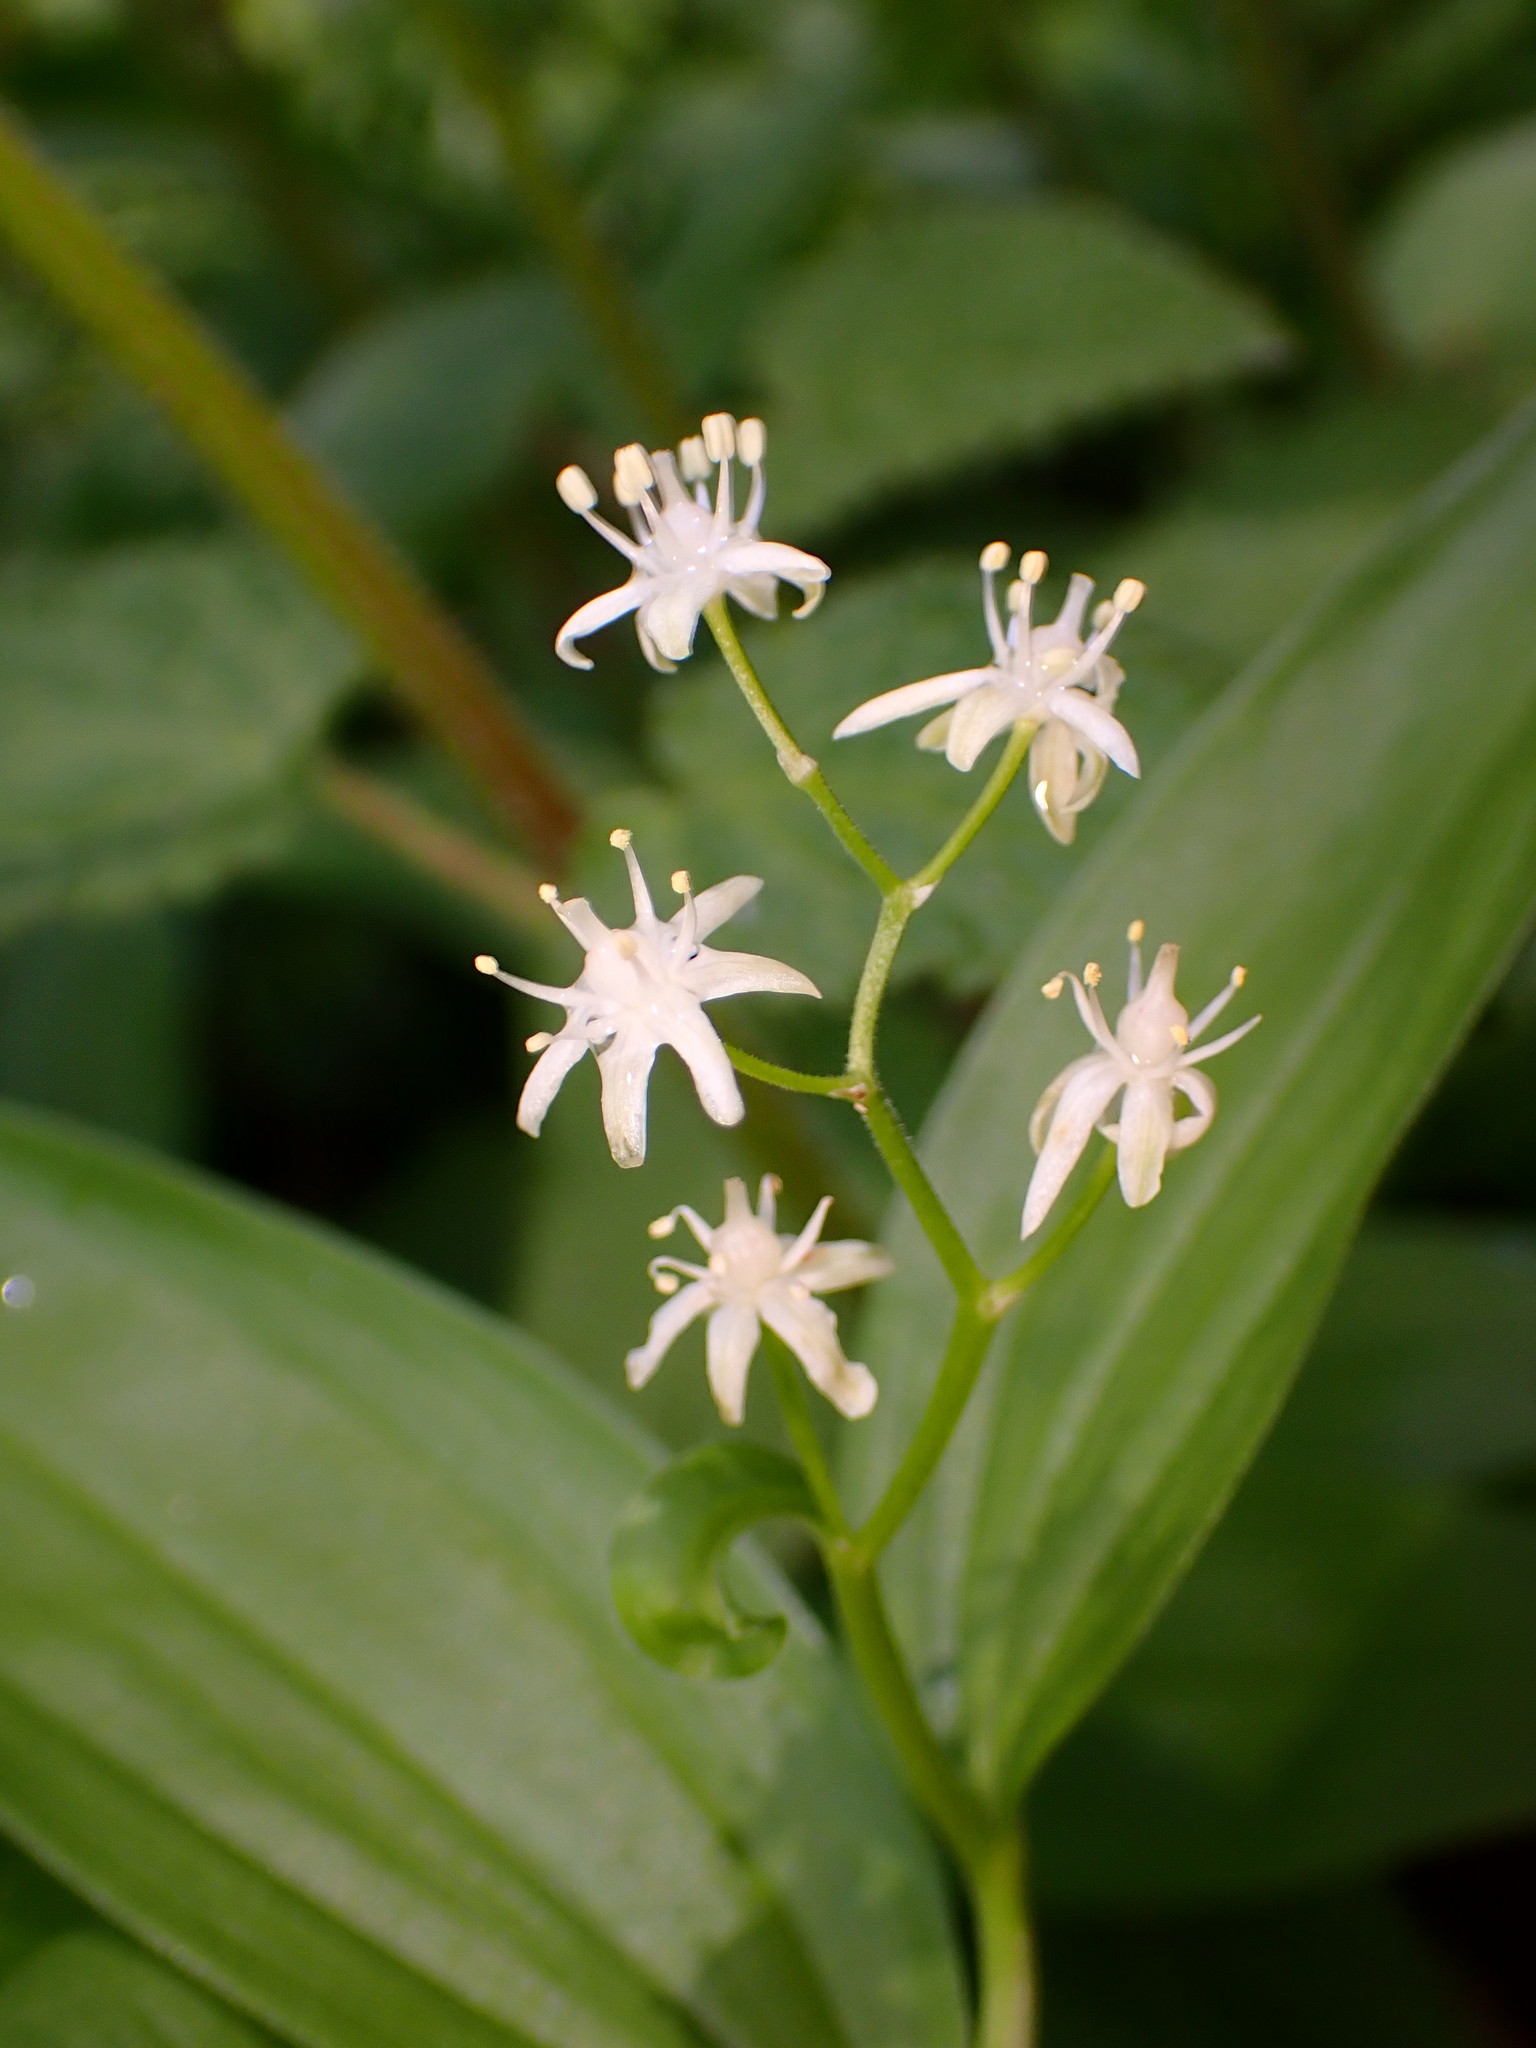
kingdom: Plantae
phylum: Tracheophyta
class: Liliopsida
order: Asparagales
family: Asparagaceae
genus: Maianthemum
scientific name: Maianthemum stellatum
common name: Little false solomon's seal
